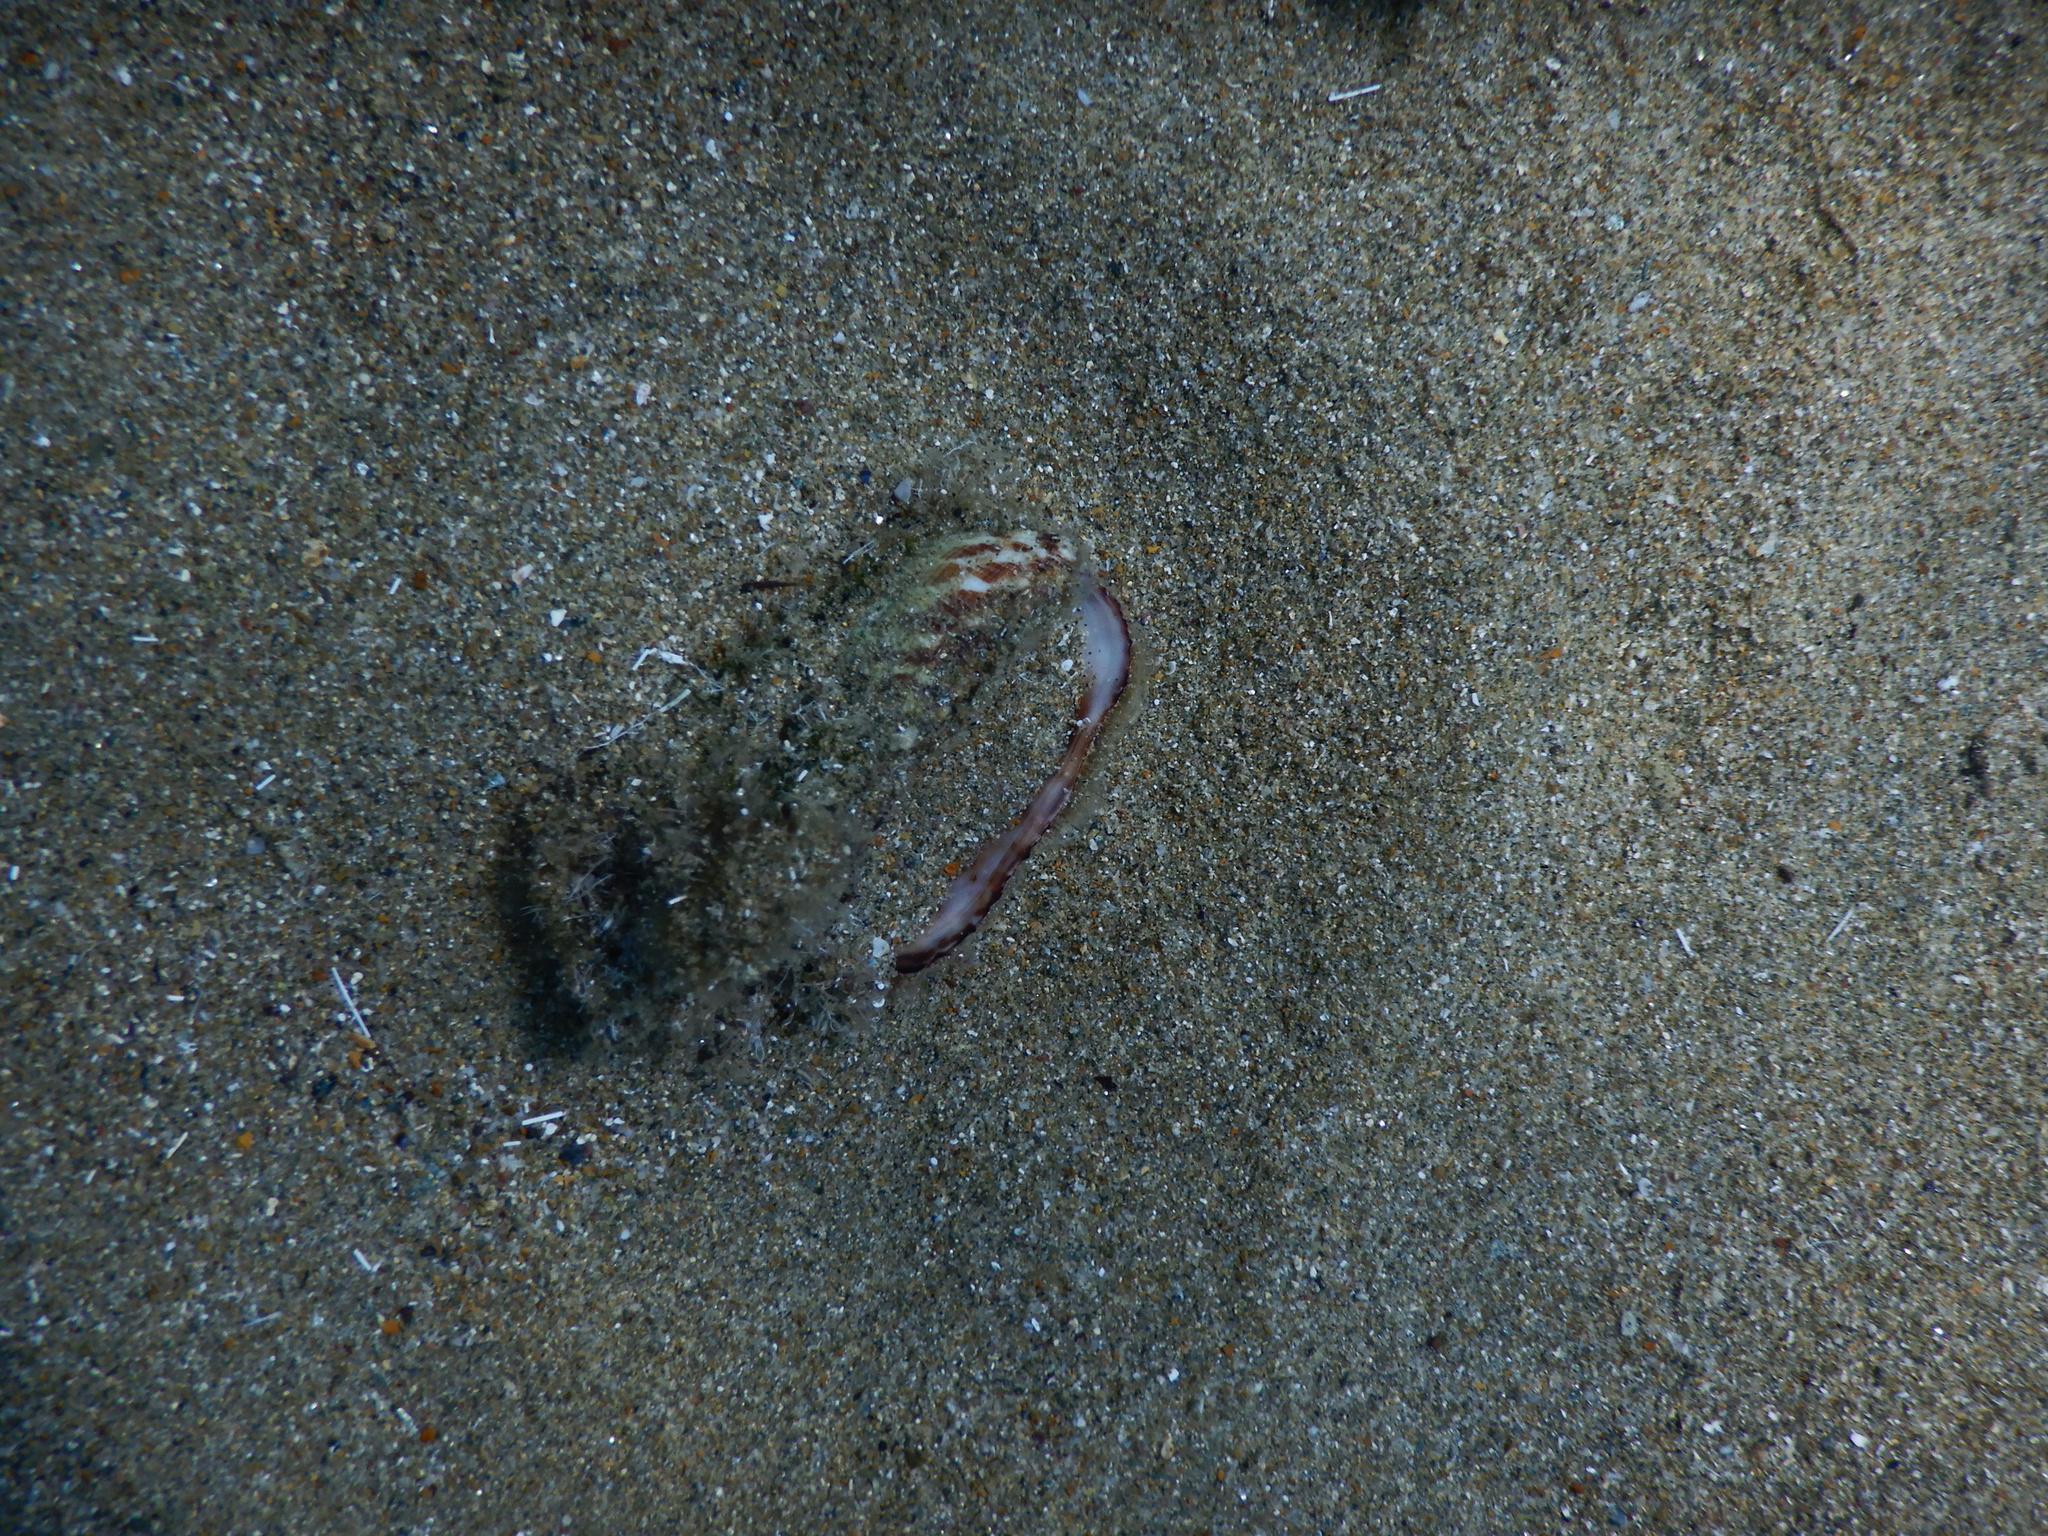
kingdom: Animalia
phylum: Mollusca
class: Bivalvia
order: Arcida
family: Arcidae
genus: Arca
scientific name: Arca noae
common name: Noah's arch
